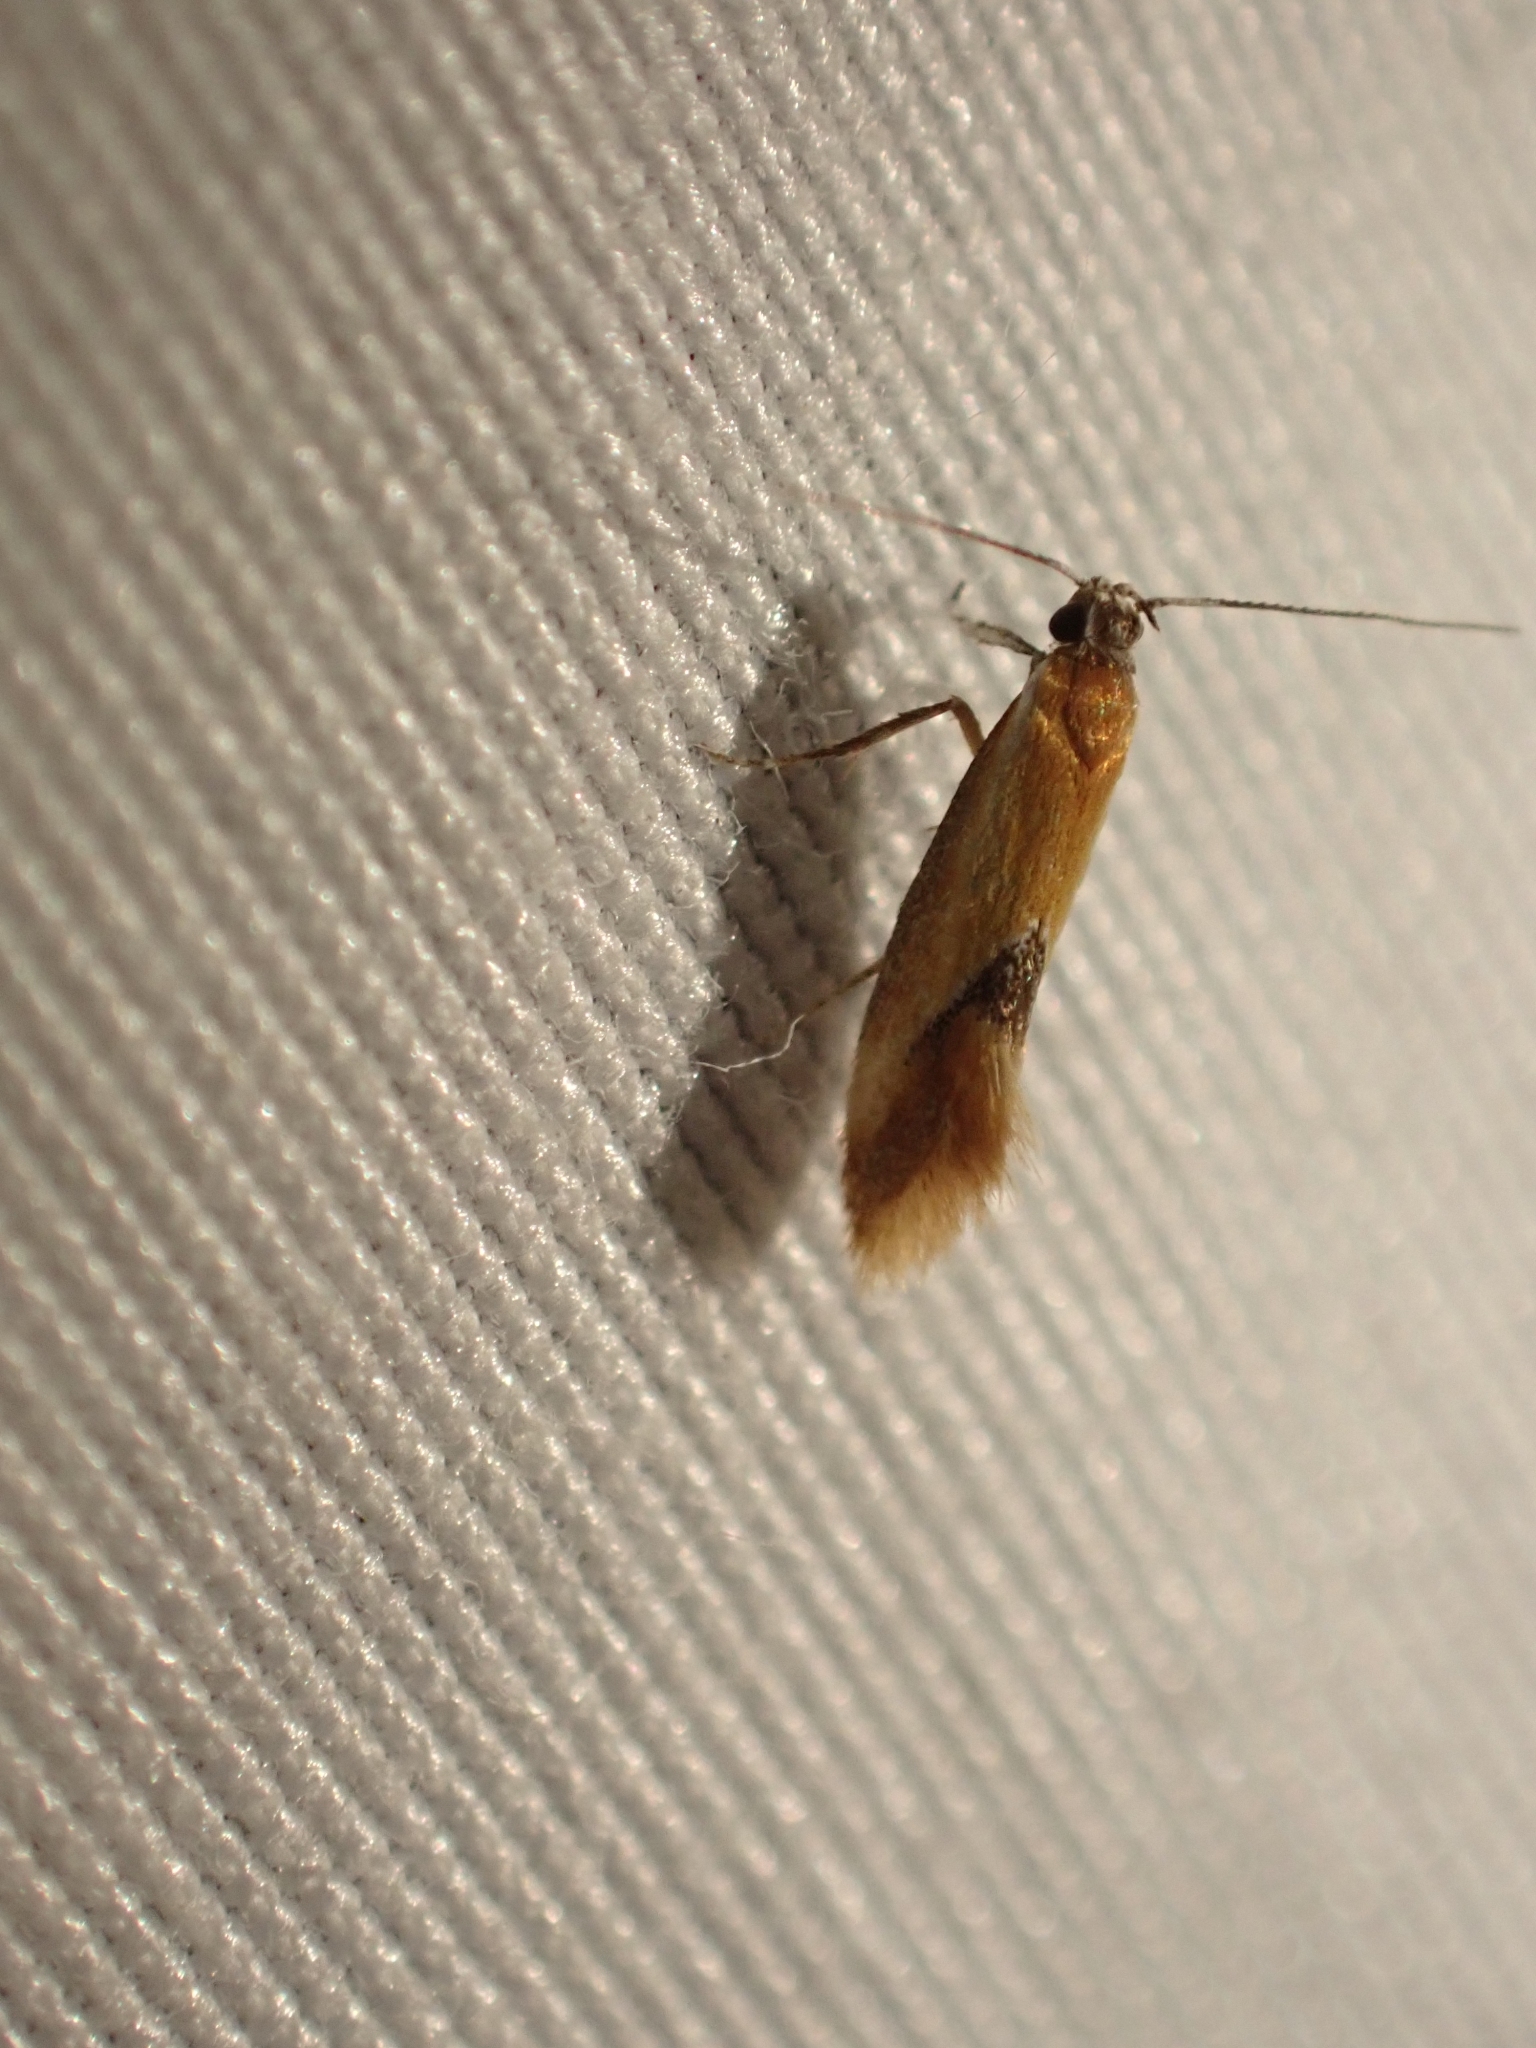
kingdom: Animalia
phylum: Arthropoda
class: Insecta
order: Lepidoptera
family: Oecophoridae
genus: Batia
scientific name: Batia lunaris
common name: Moth
